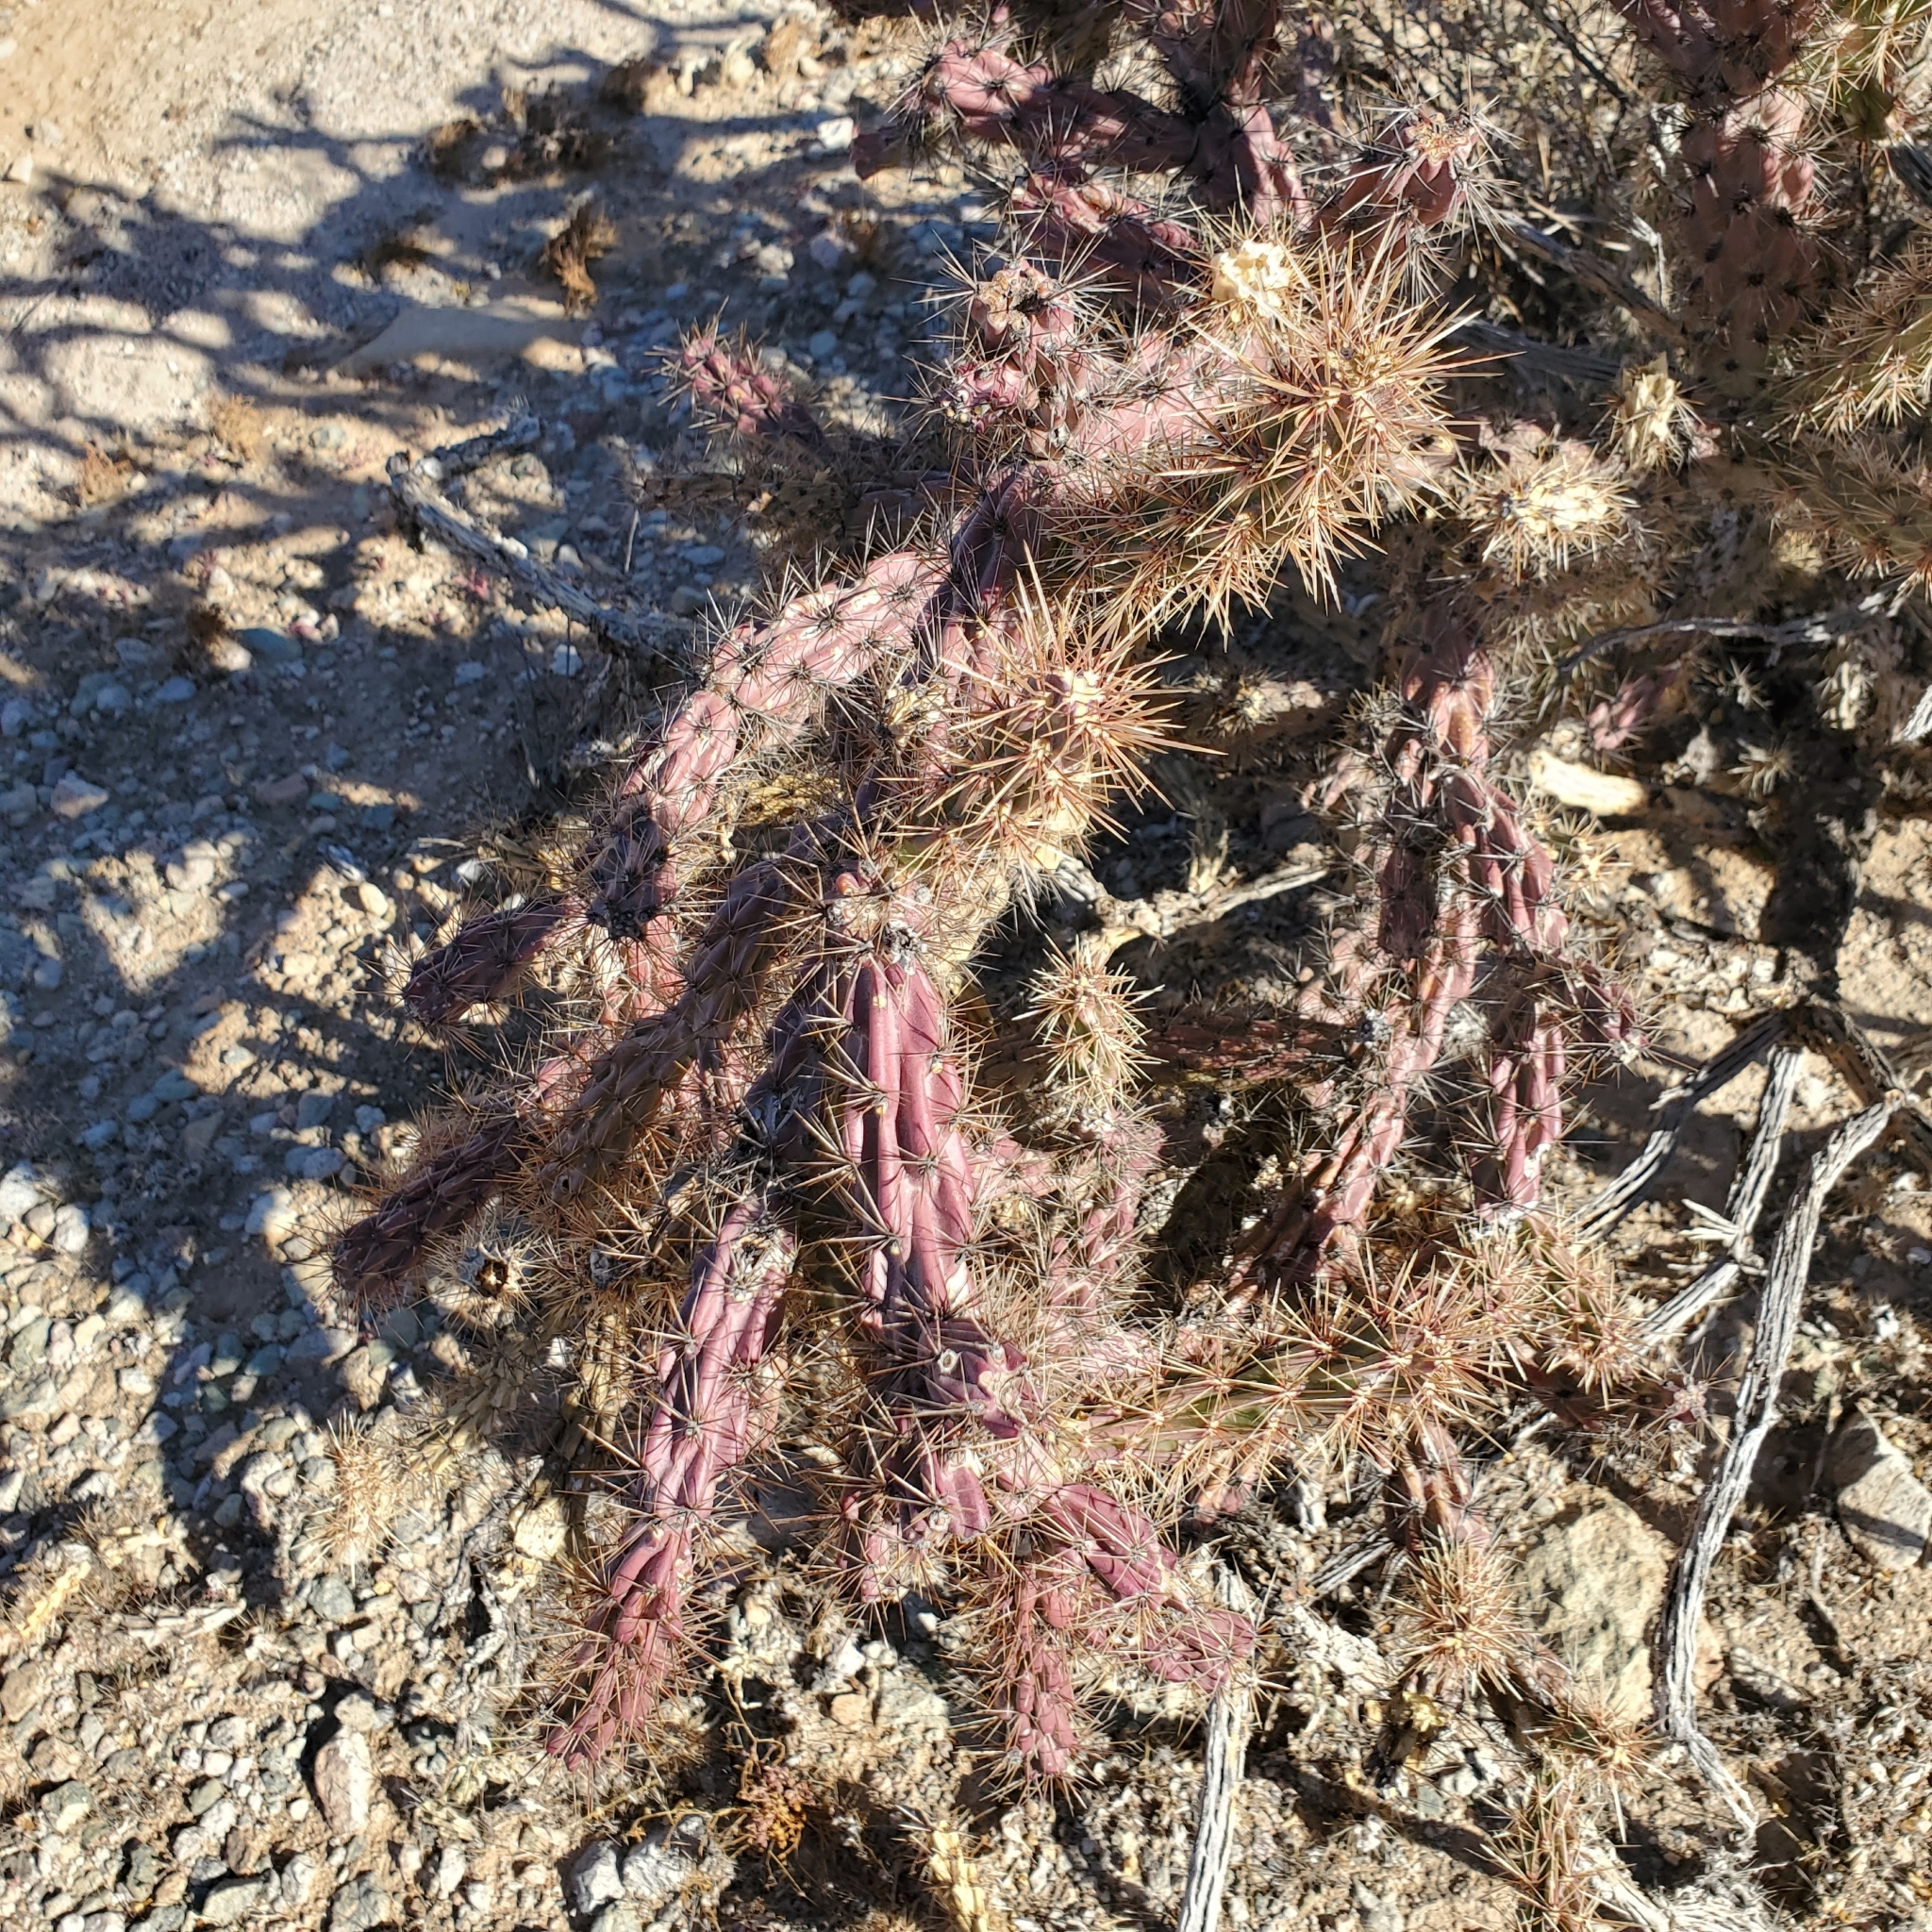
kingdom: Plantae
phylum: Tracheophyta
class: Magnoliopsida
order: Caryophyllales
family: Cactaceae
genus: Cylindropuntia
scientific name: Cylindropuntia acanthocarpa
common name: Buckhorn cholla
